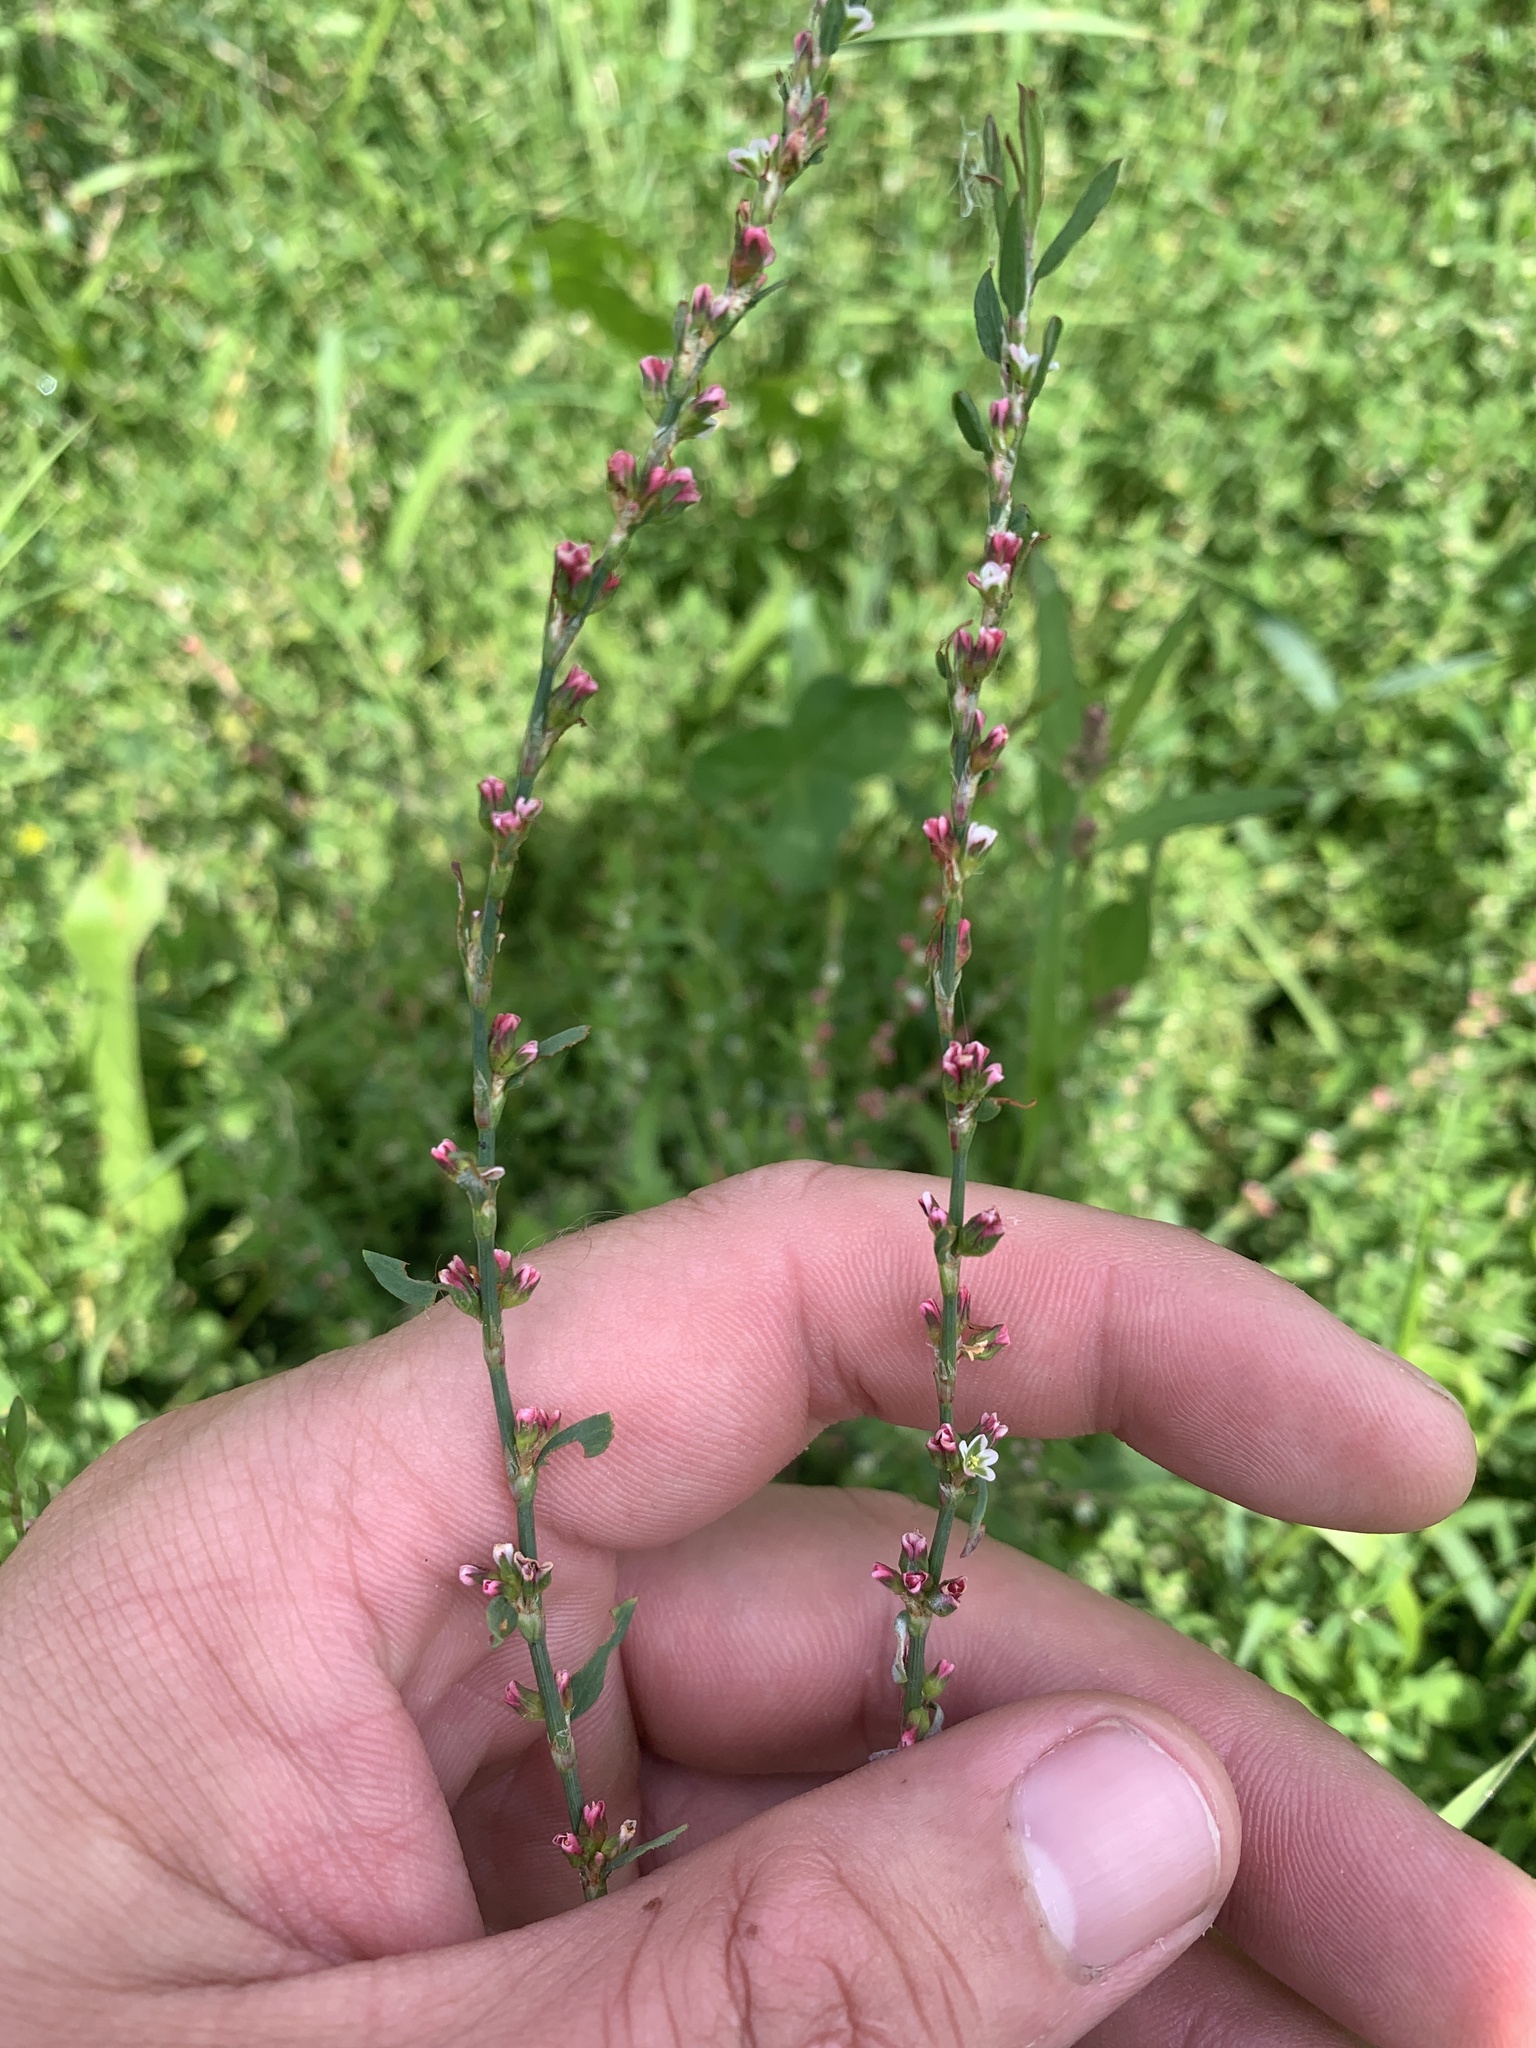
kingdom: Plantae
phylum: Tracheophyta
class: Magnoliopsida
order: Caryophyllales
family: Polygonaceae
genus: Polygonum
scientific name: Polygonum aviculare
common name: Prostrate knotweed
